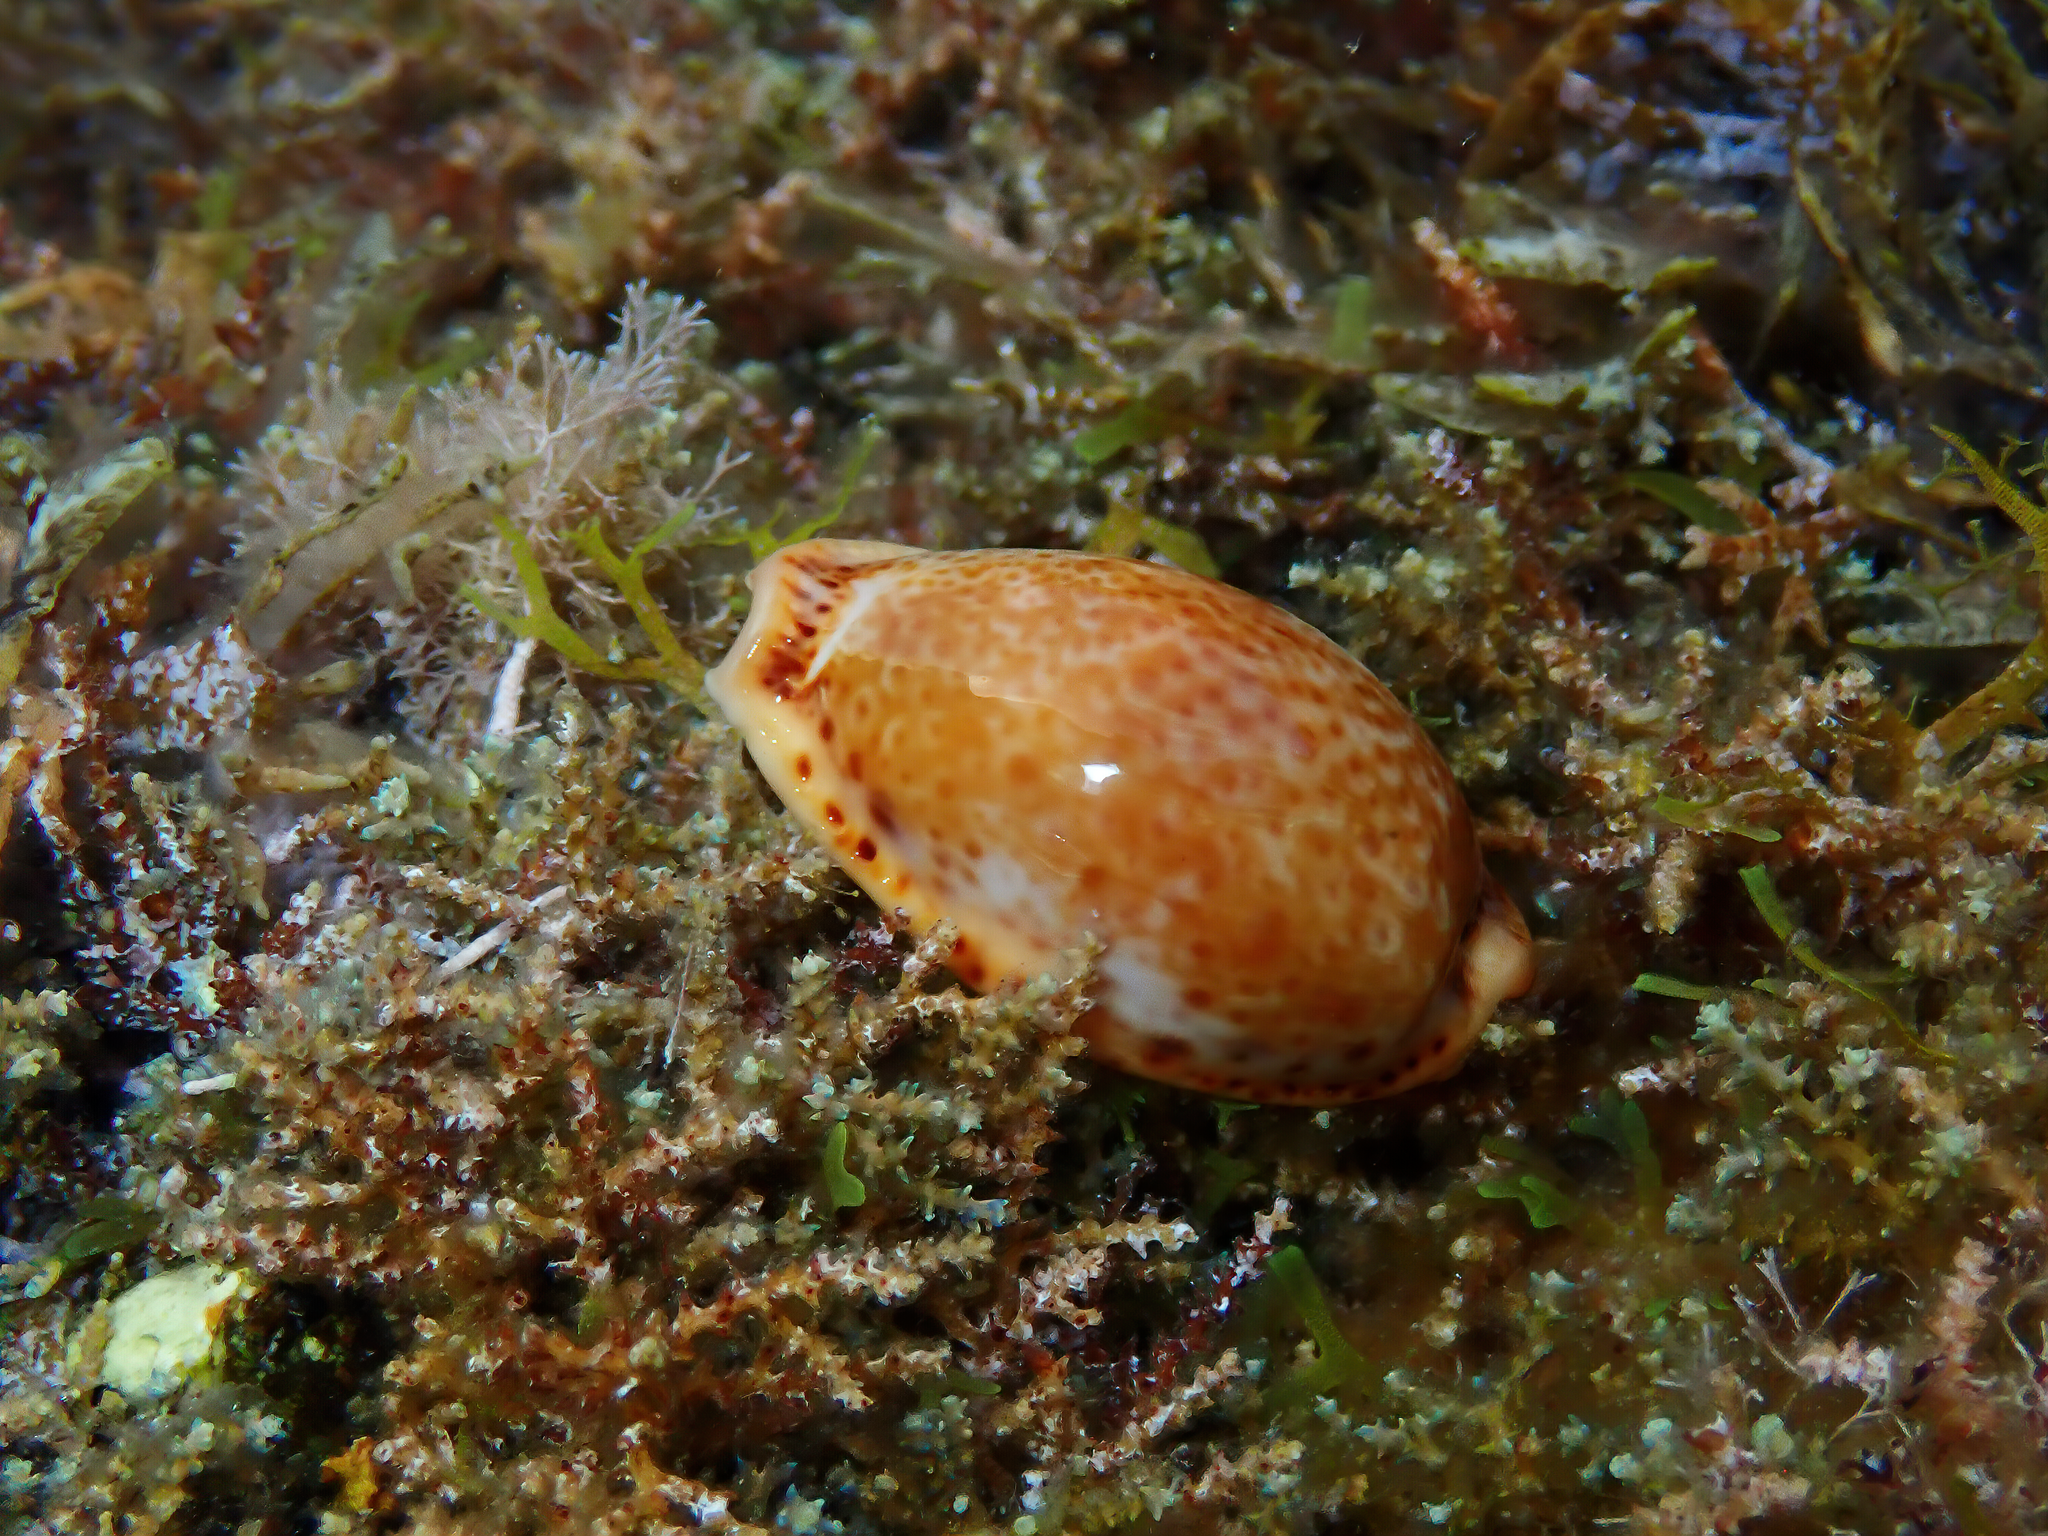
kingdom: Animalia
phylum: Mollusca
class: Gastropoda
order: Littorinimorpha
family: Cypraeidae
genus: Naria
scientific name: Naria spurca
